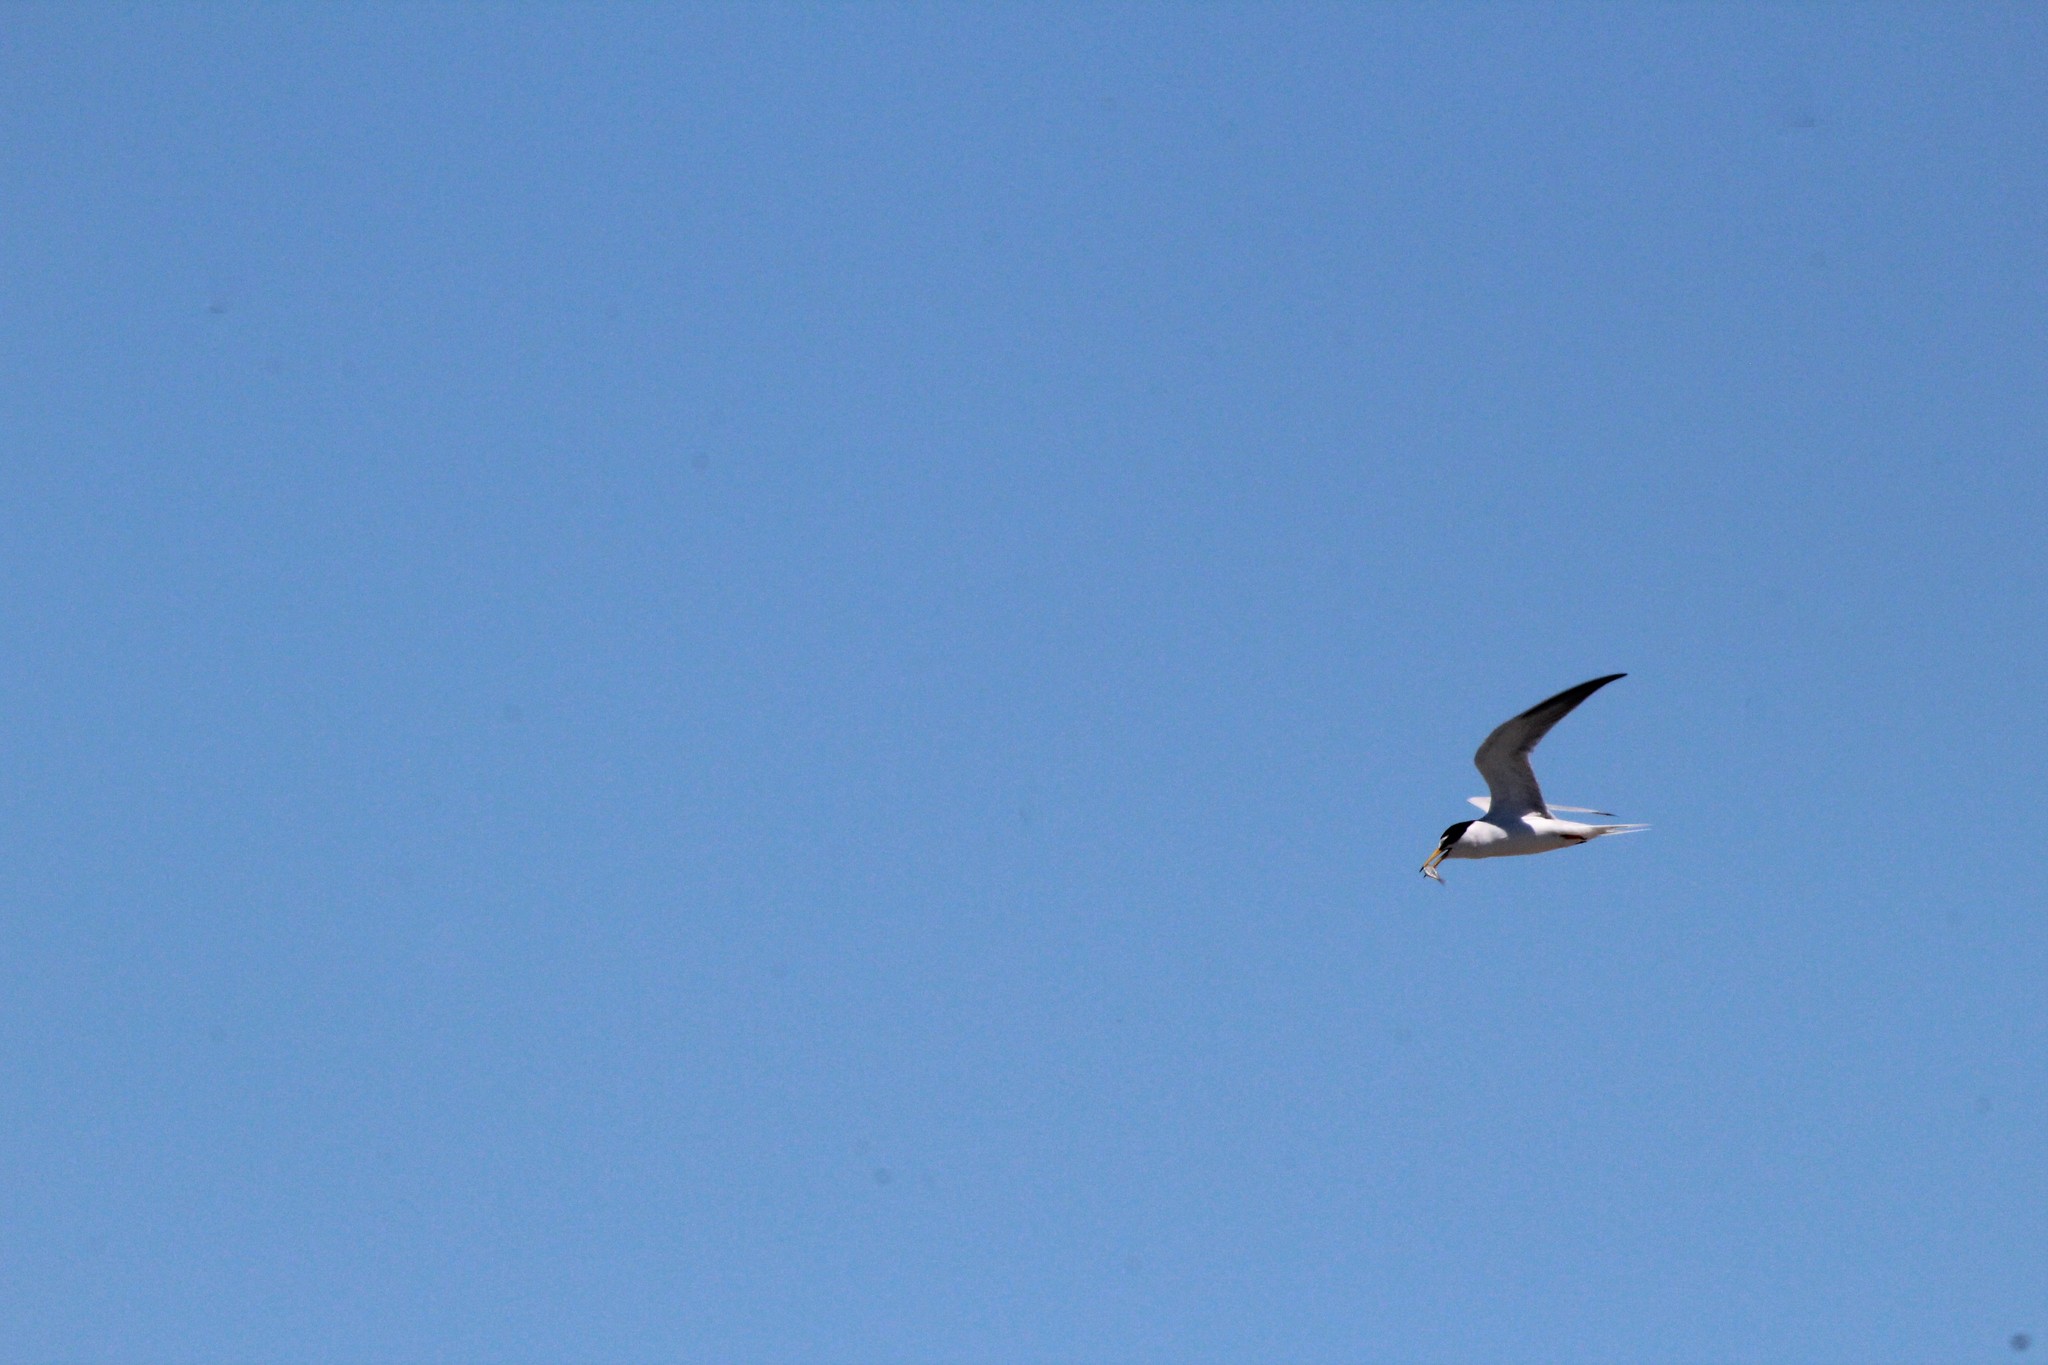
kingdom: Animalia
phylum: Chordata
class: Aves
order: Charadriiformes
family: Laridae
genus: Sternula
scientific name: Sternula antillarum
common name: Least tern
